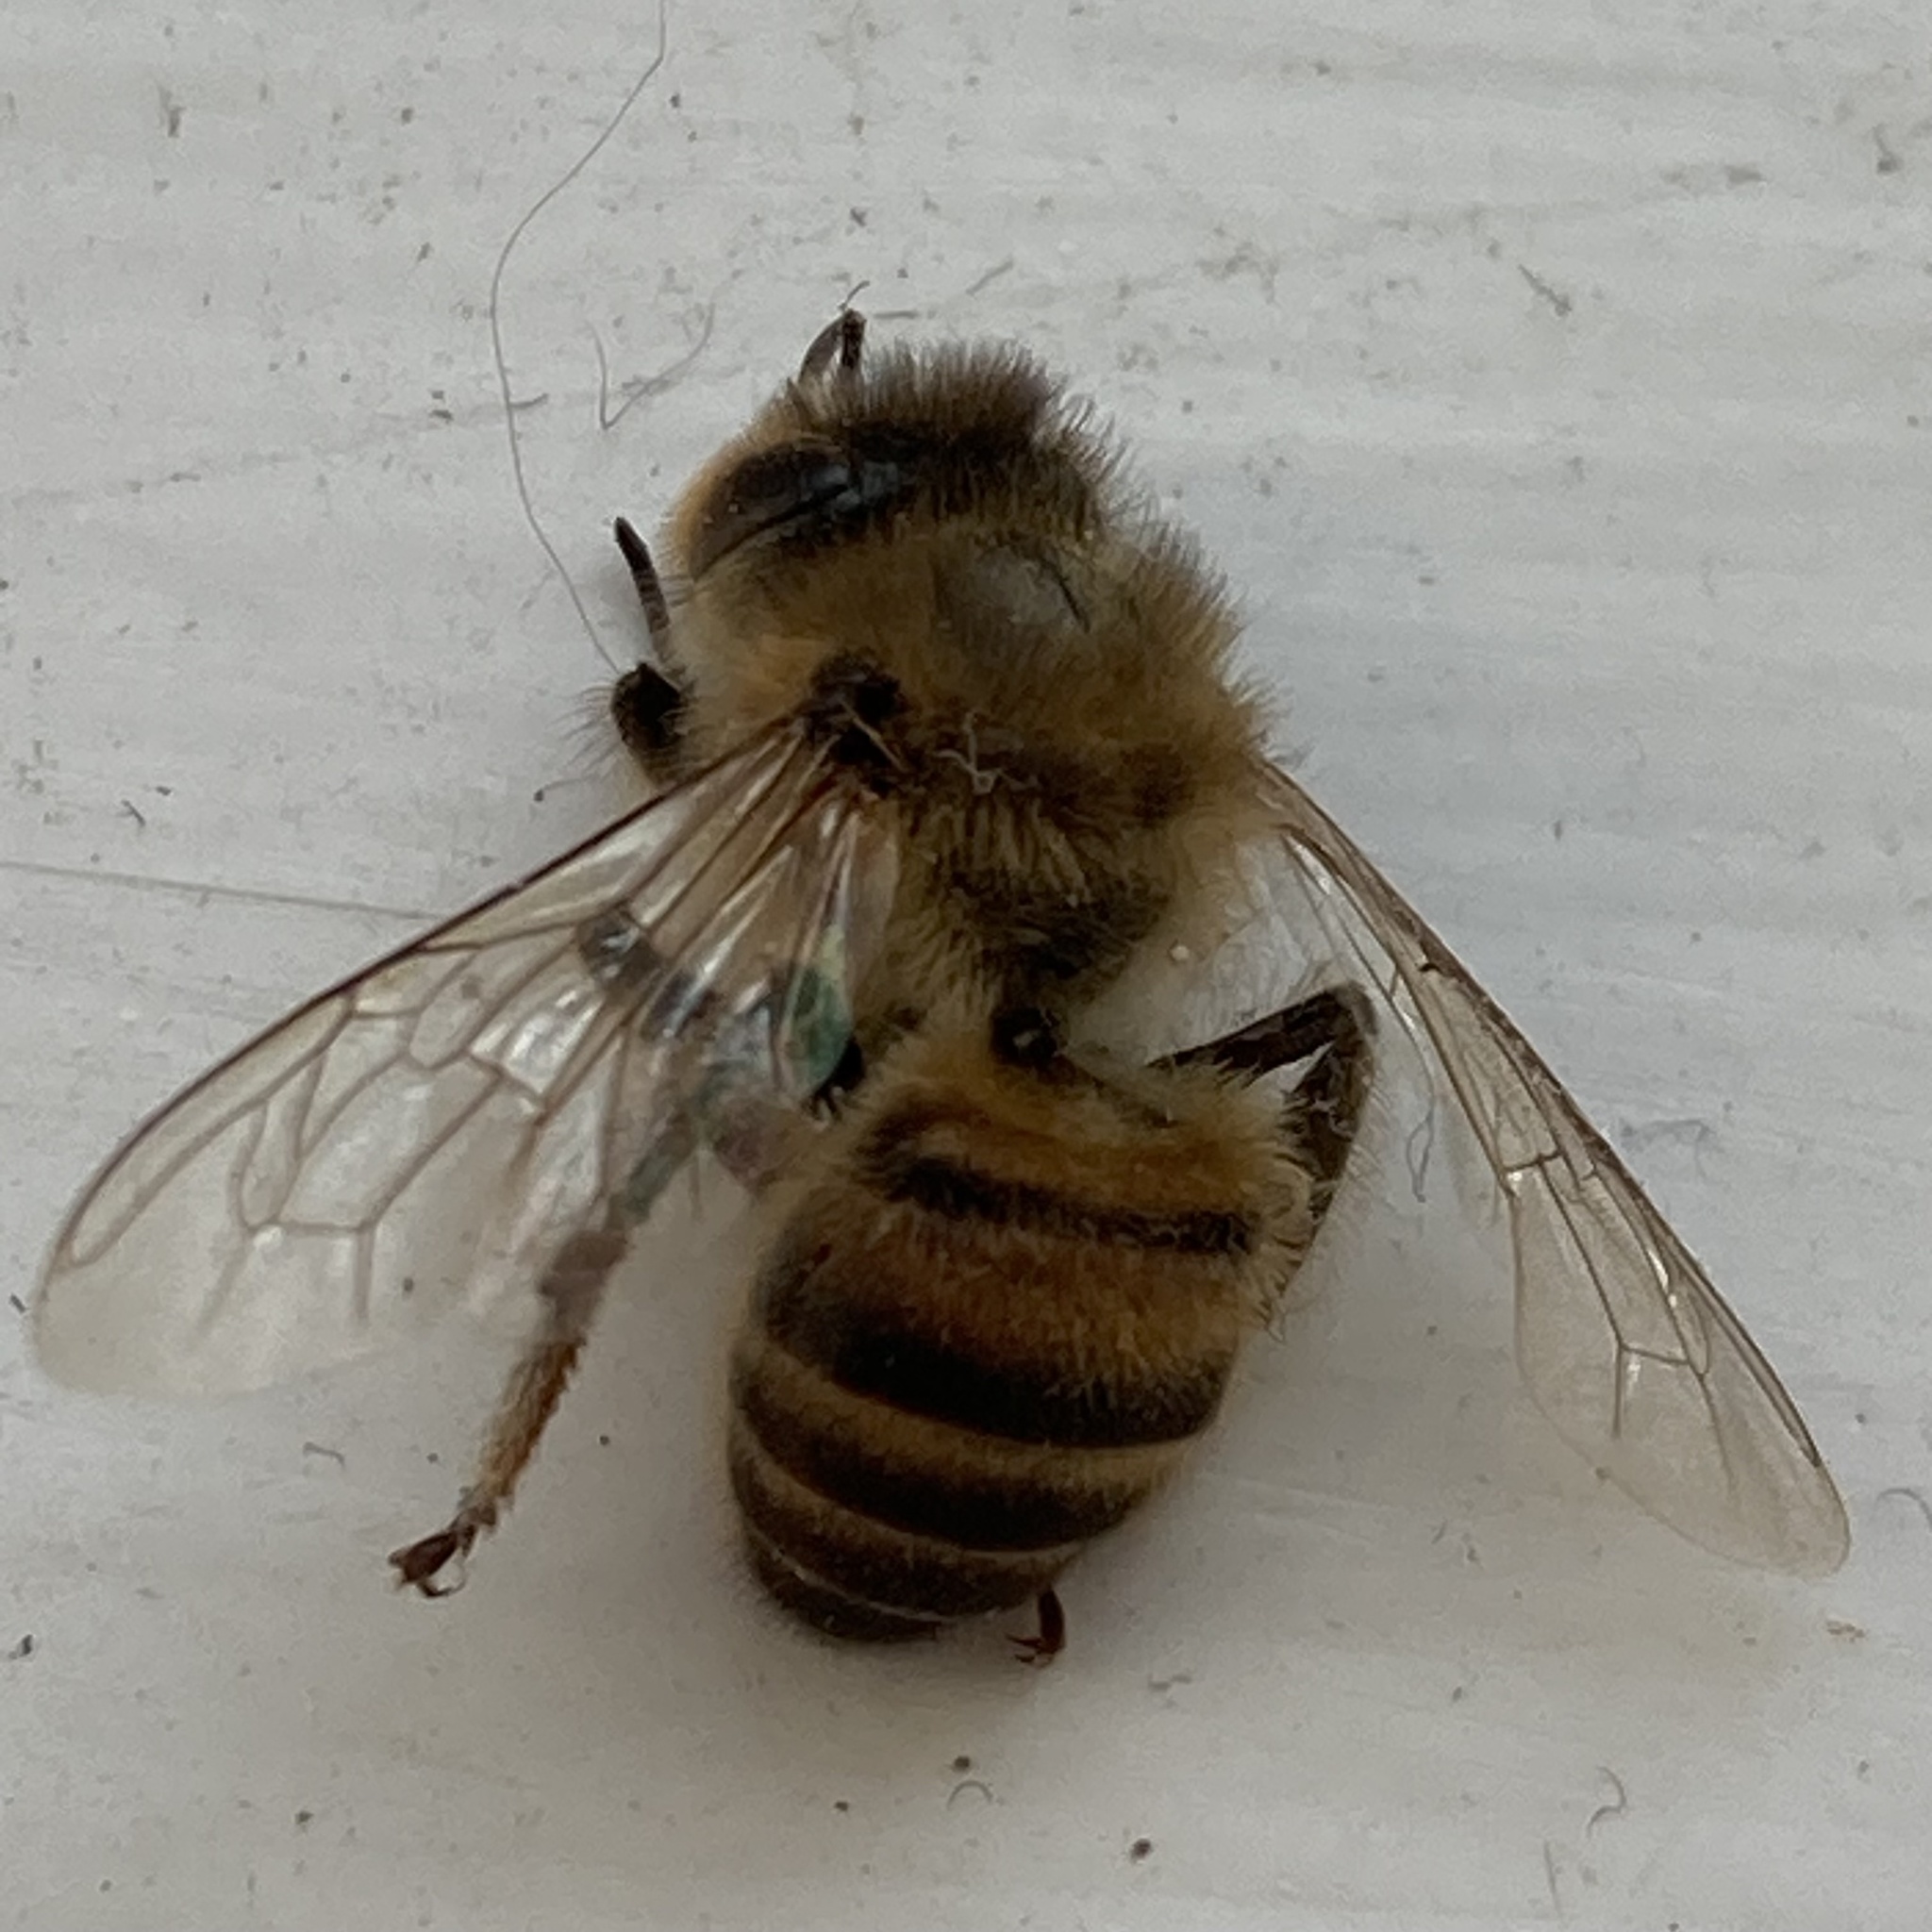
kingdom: Animalia
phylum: Arthropoda
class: Insecta
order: Hymenoptera
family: Apidae
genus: Apis
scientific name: Apis mellifera
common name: Honey bee
